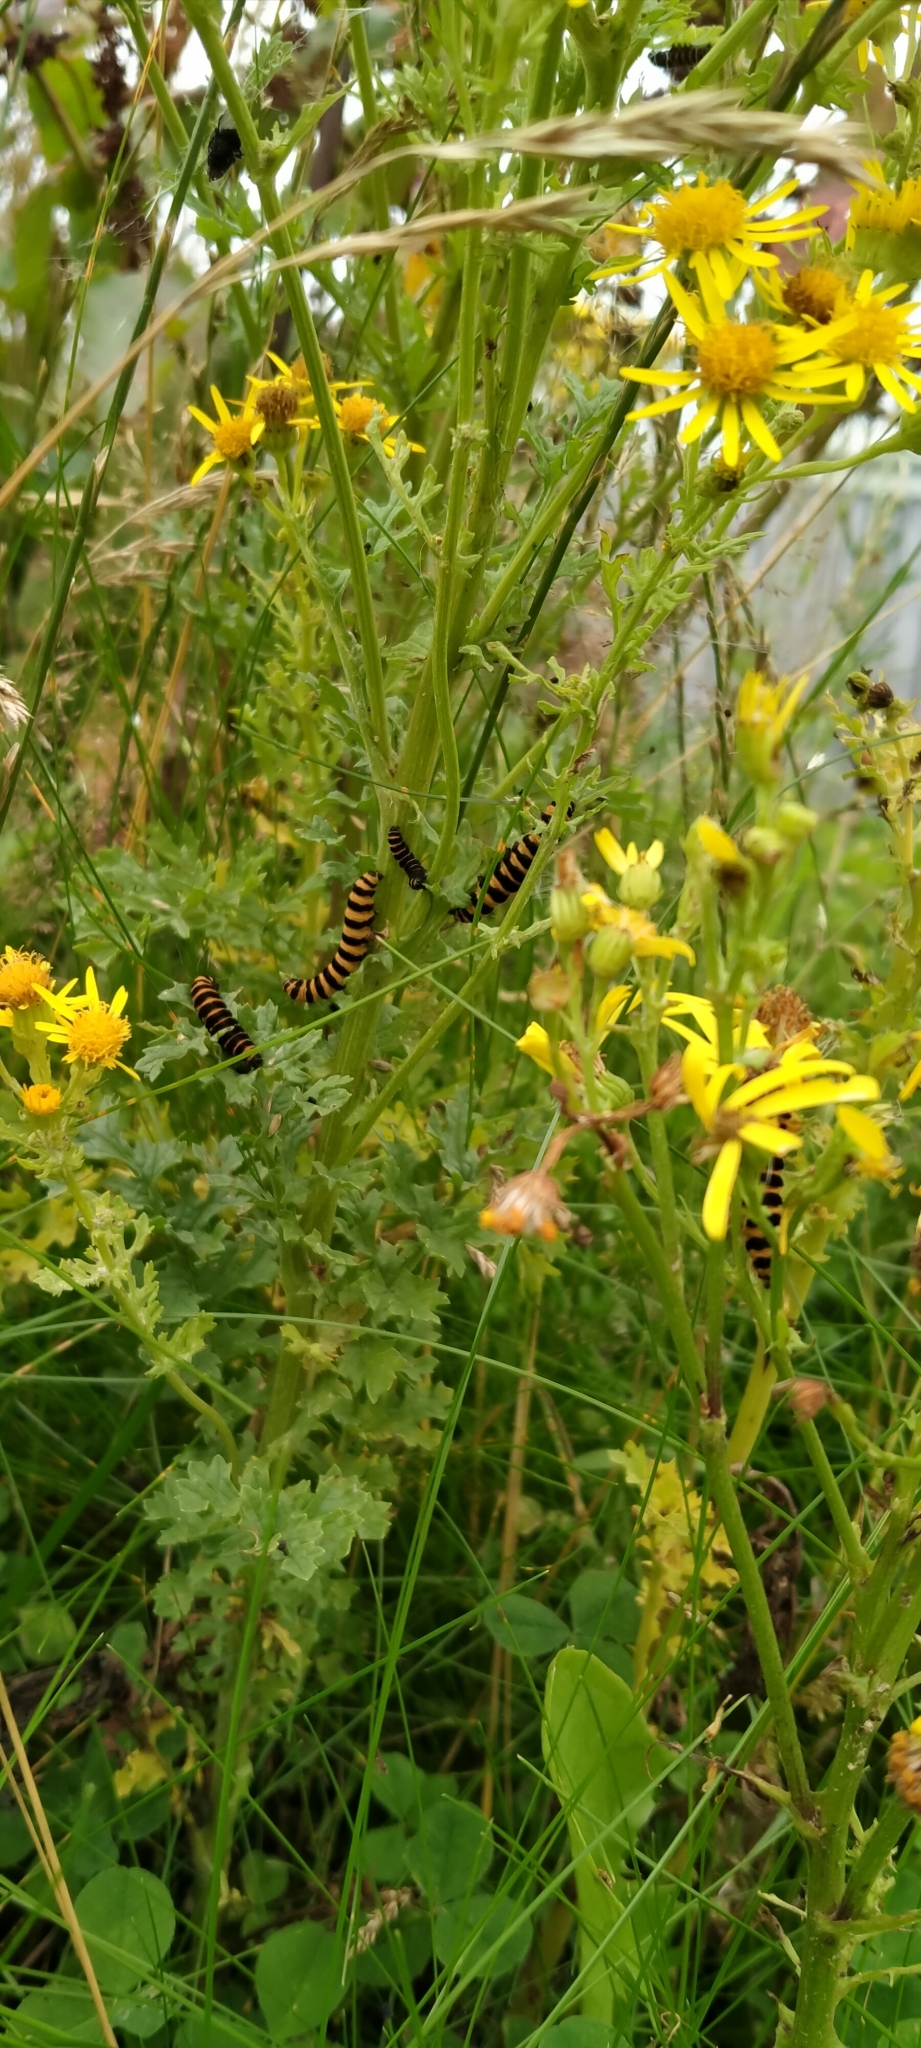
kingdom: Animalia
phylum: Arthropoda
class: Insecta
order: Lepidoptera
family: Erebidae
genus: Tyria
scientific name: Tyria jacobaeae
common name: Cinnabar
